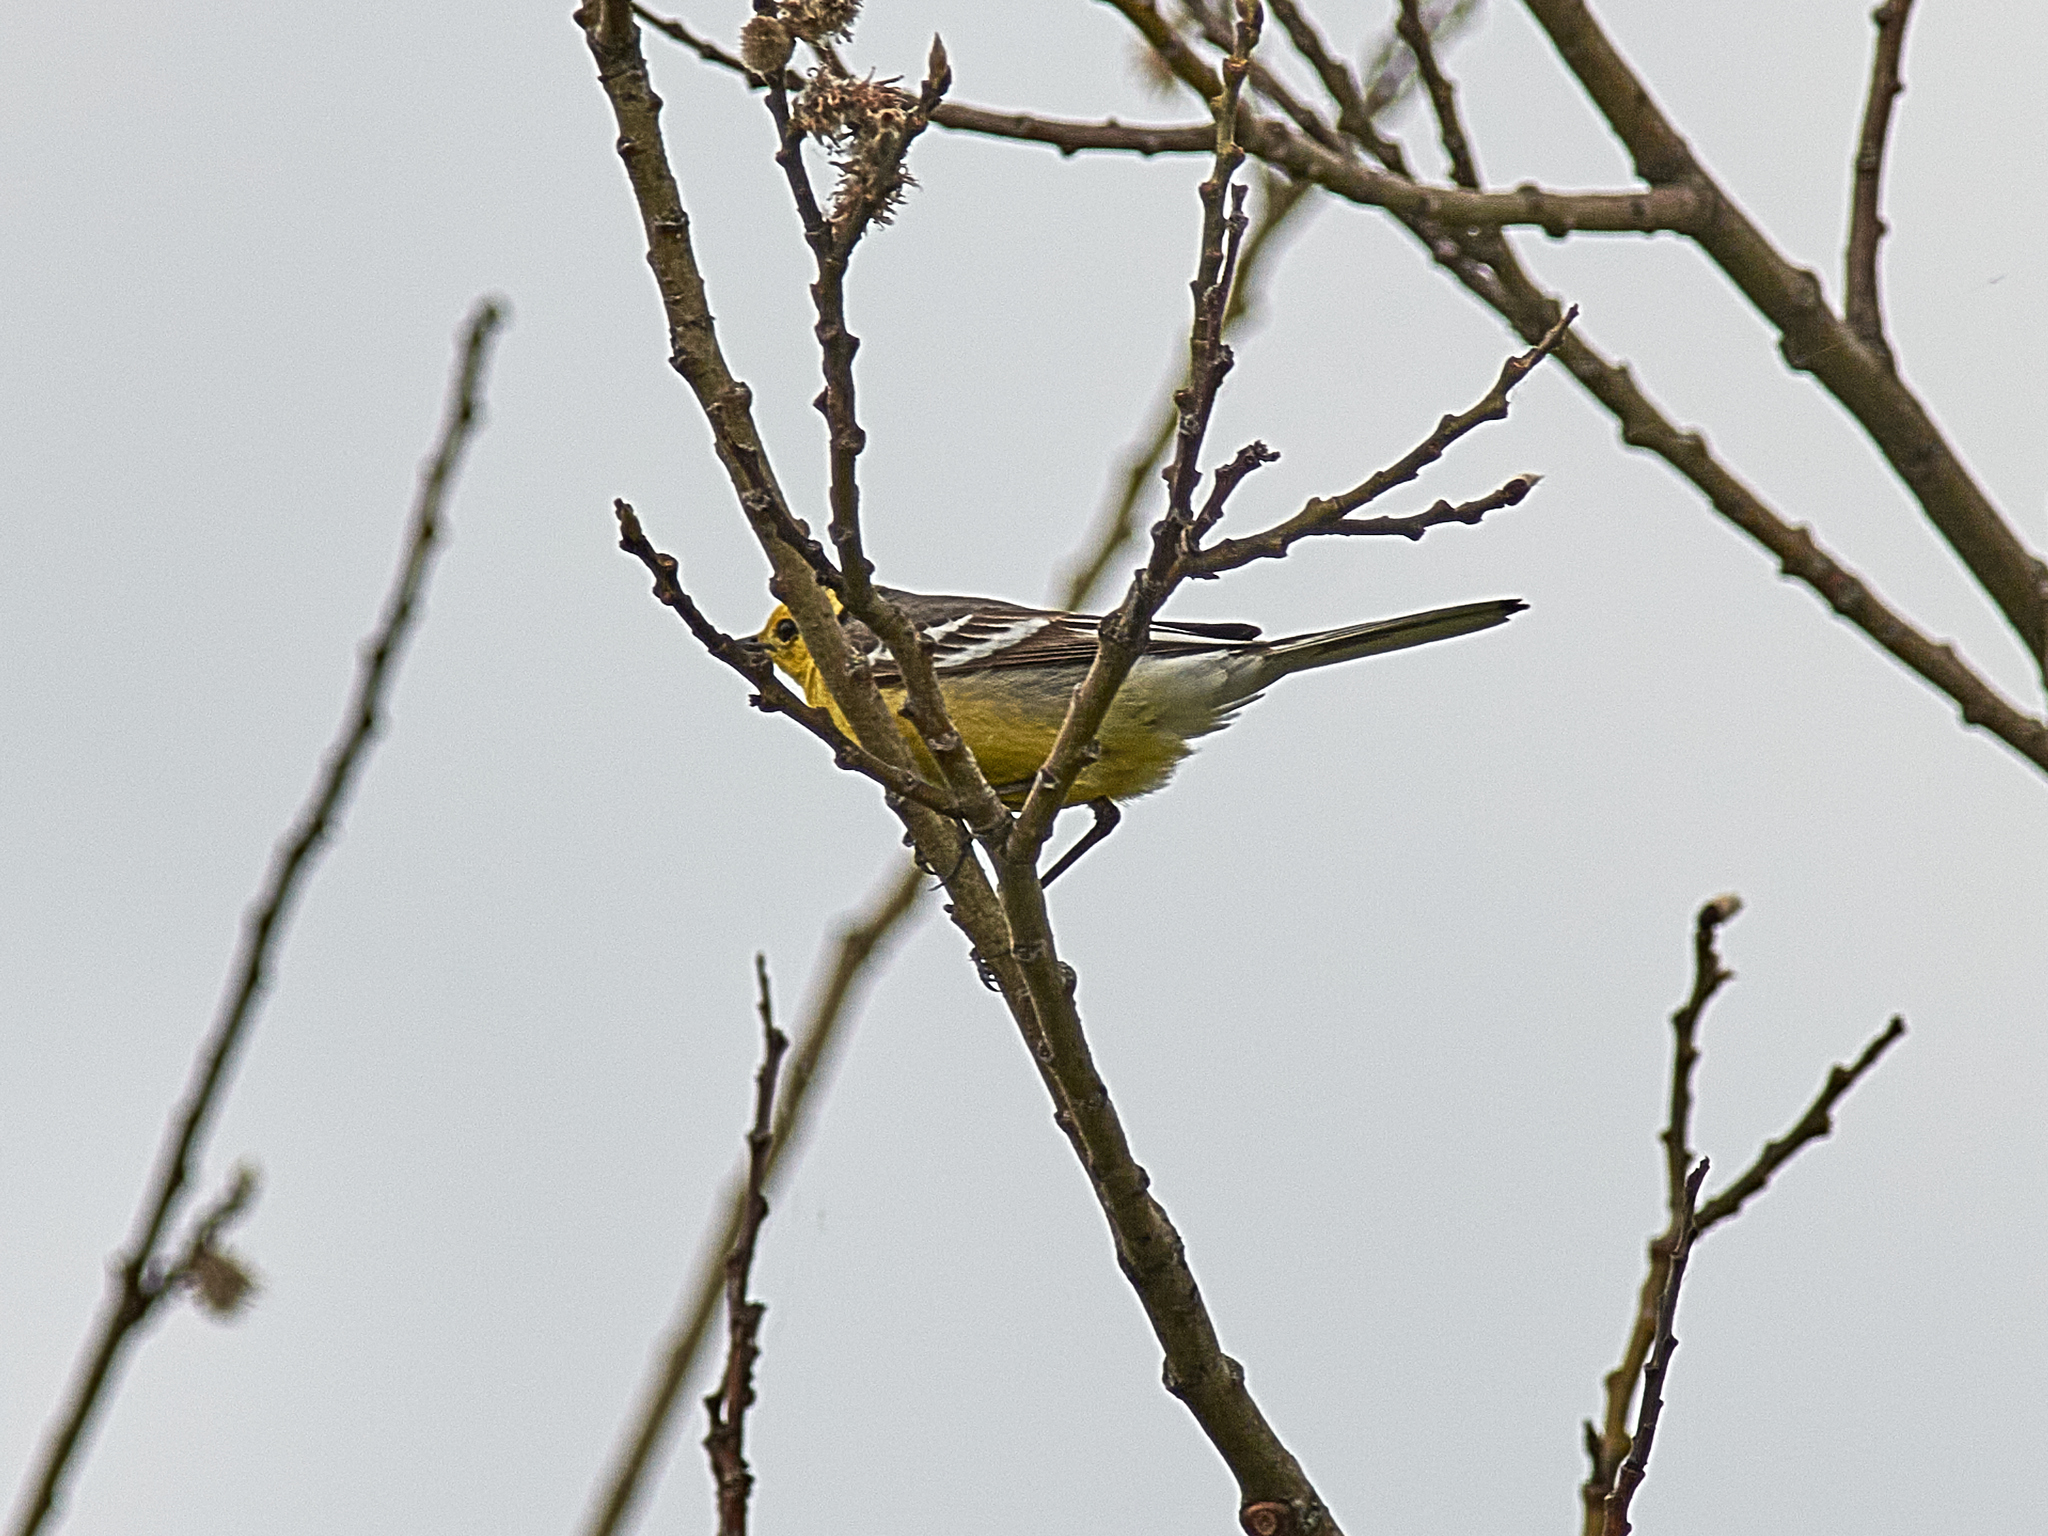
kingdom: Animalia
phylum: Chordata
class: Aves
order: Passeriformes
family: Motacillidae
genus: Motacilla
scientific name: Motacilla citreola
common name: Citrine wagtail
